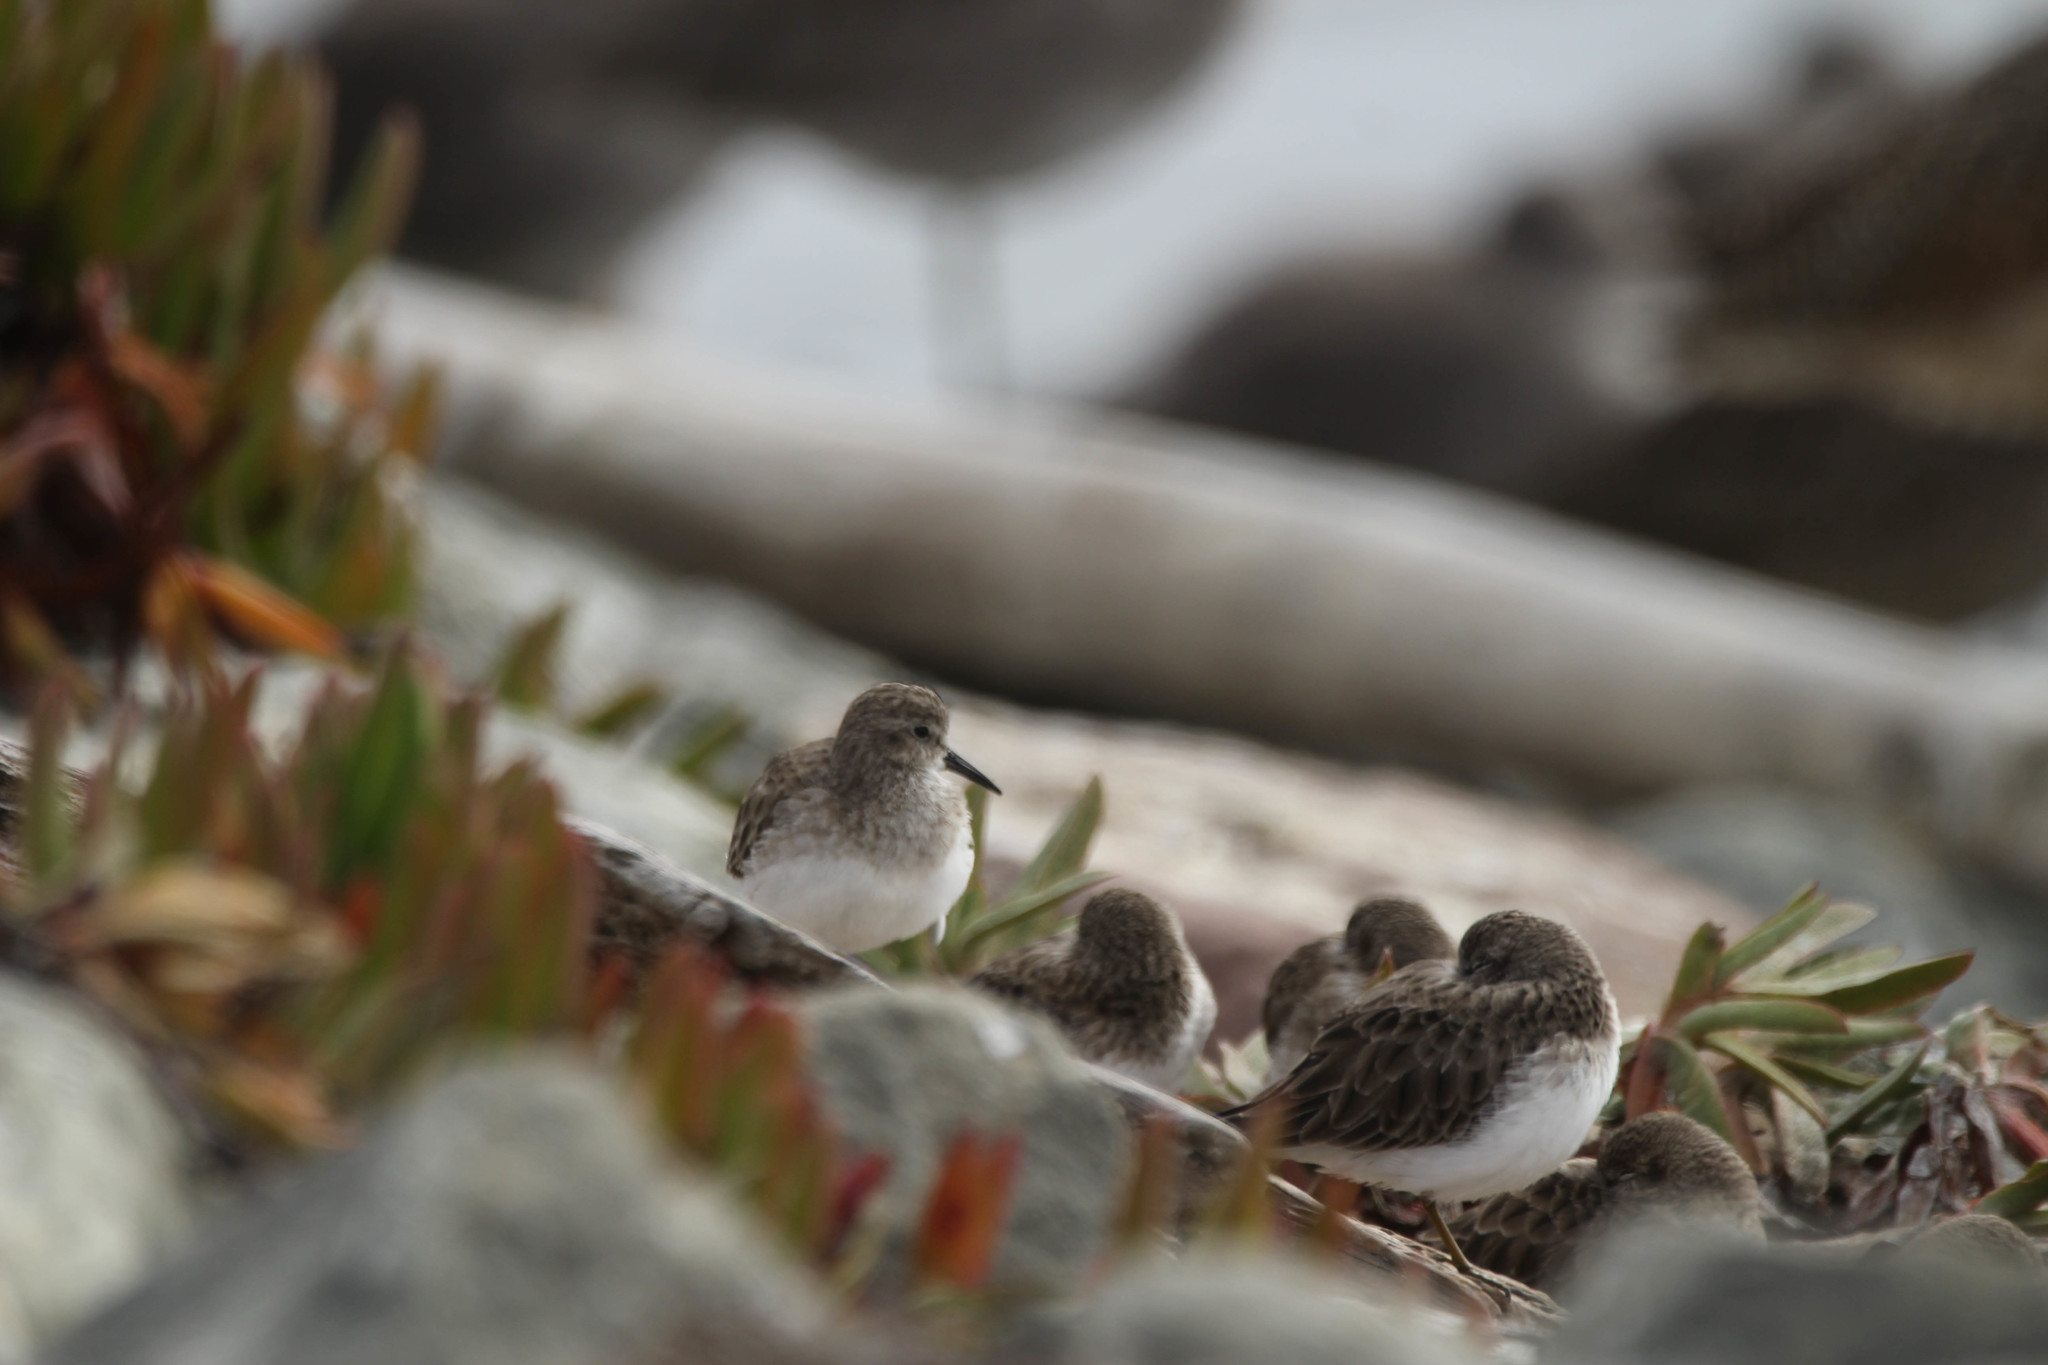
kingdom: Animalia
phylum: Chordata
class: Aves
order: Charadriiformes
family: Scolopacidae
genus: Calidris
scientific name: Calidris minutilla
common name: Least sandpiper
